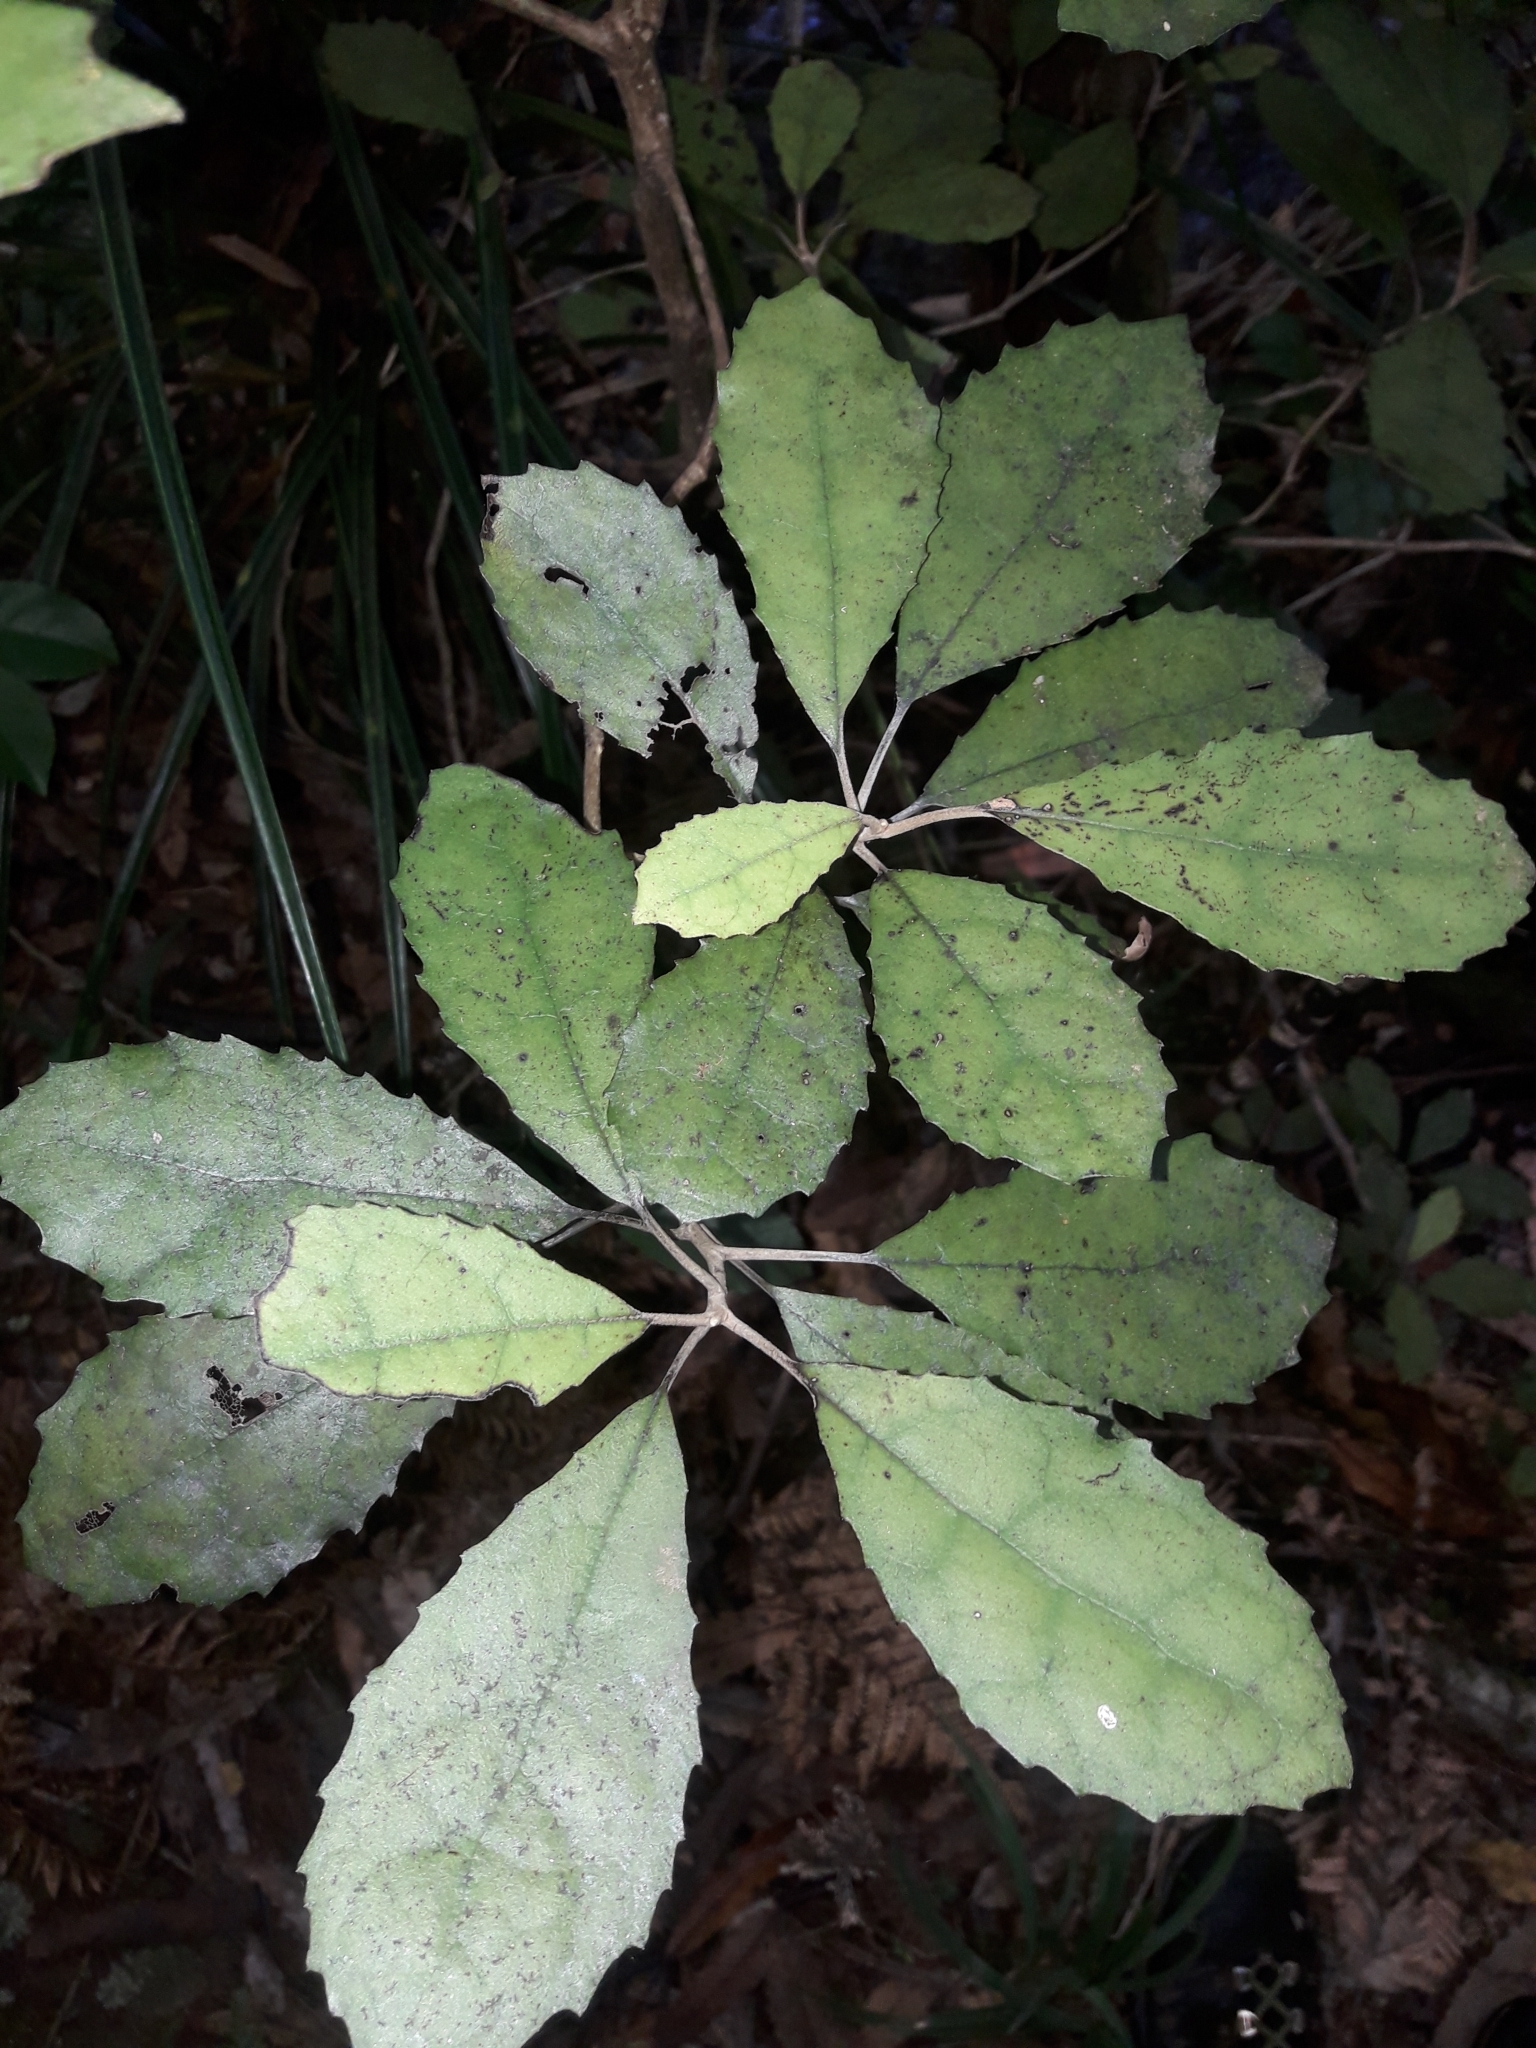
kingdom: Plantae
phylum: Tracheophyta
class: Magnoliopsida
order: Asterales
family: Asteraceae
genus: Olearia
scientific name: Olearia rani
